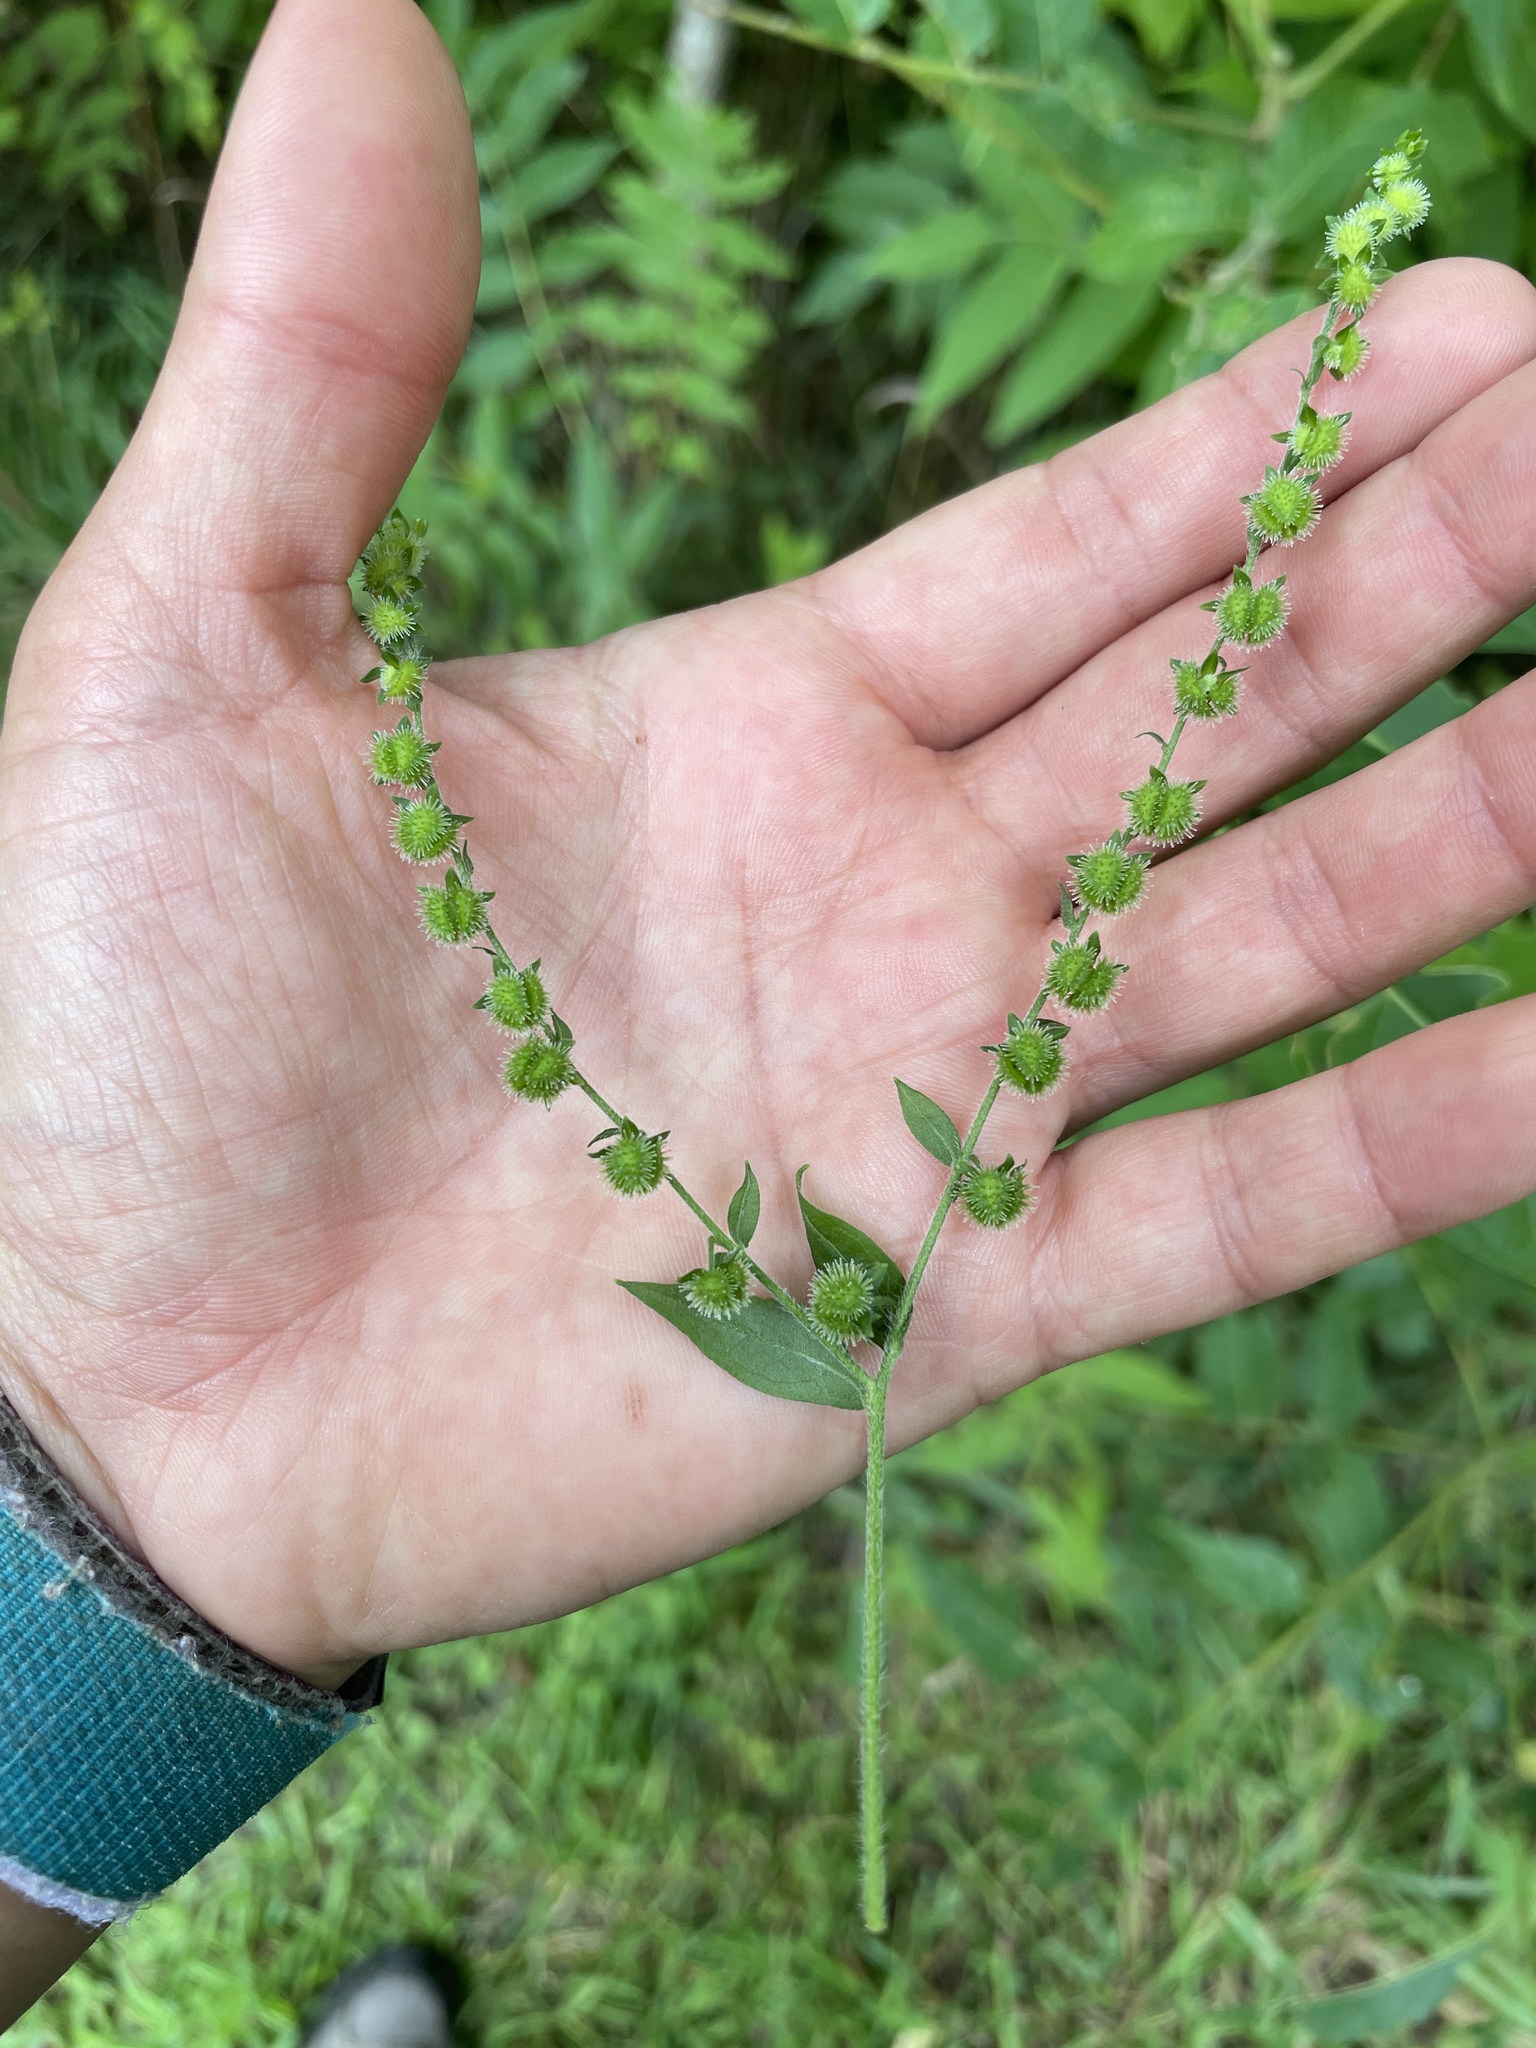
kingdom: Plantae
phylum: Tracheophyta
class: Magnoliopsida
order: Boraginales
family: Boraginaceae
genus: Hackelia
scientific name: Hackelia virginiana
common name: Beggar's-lice
